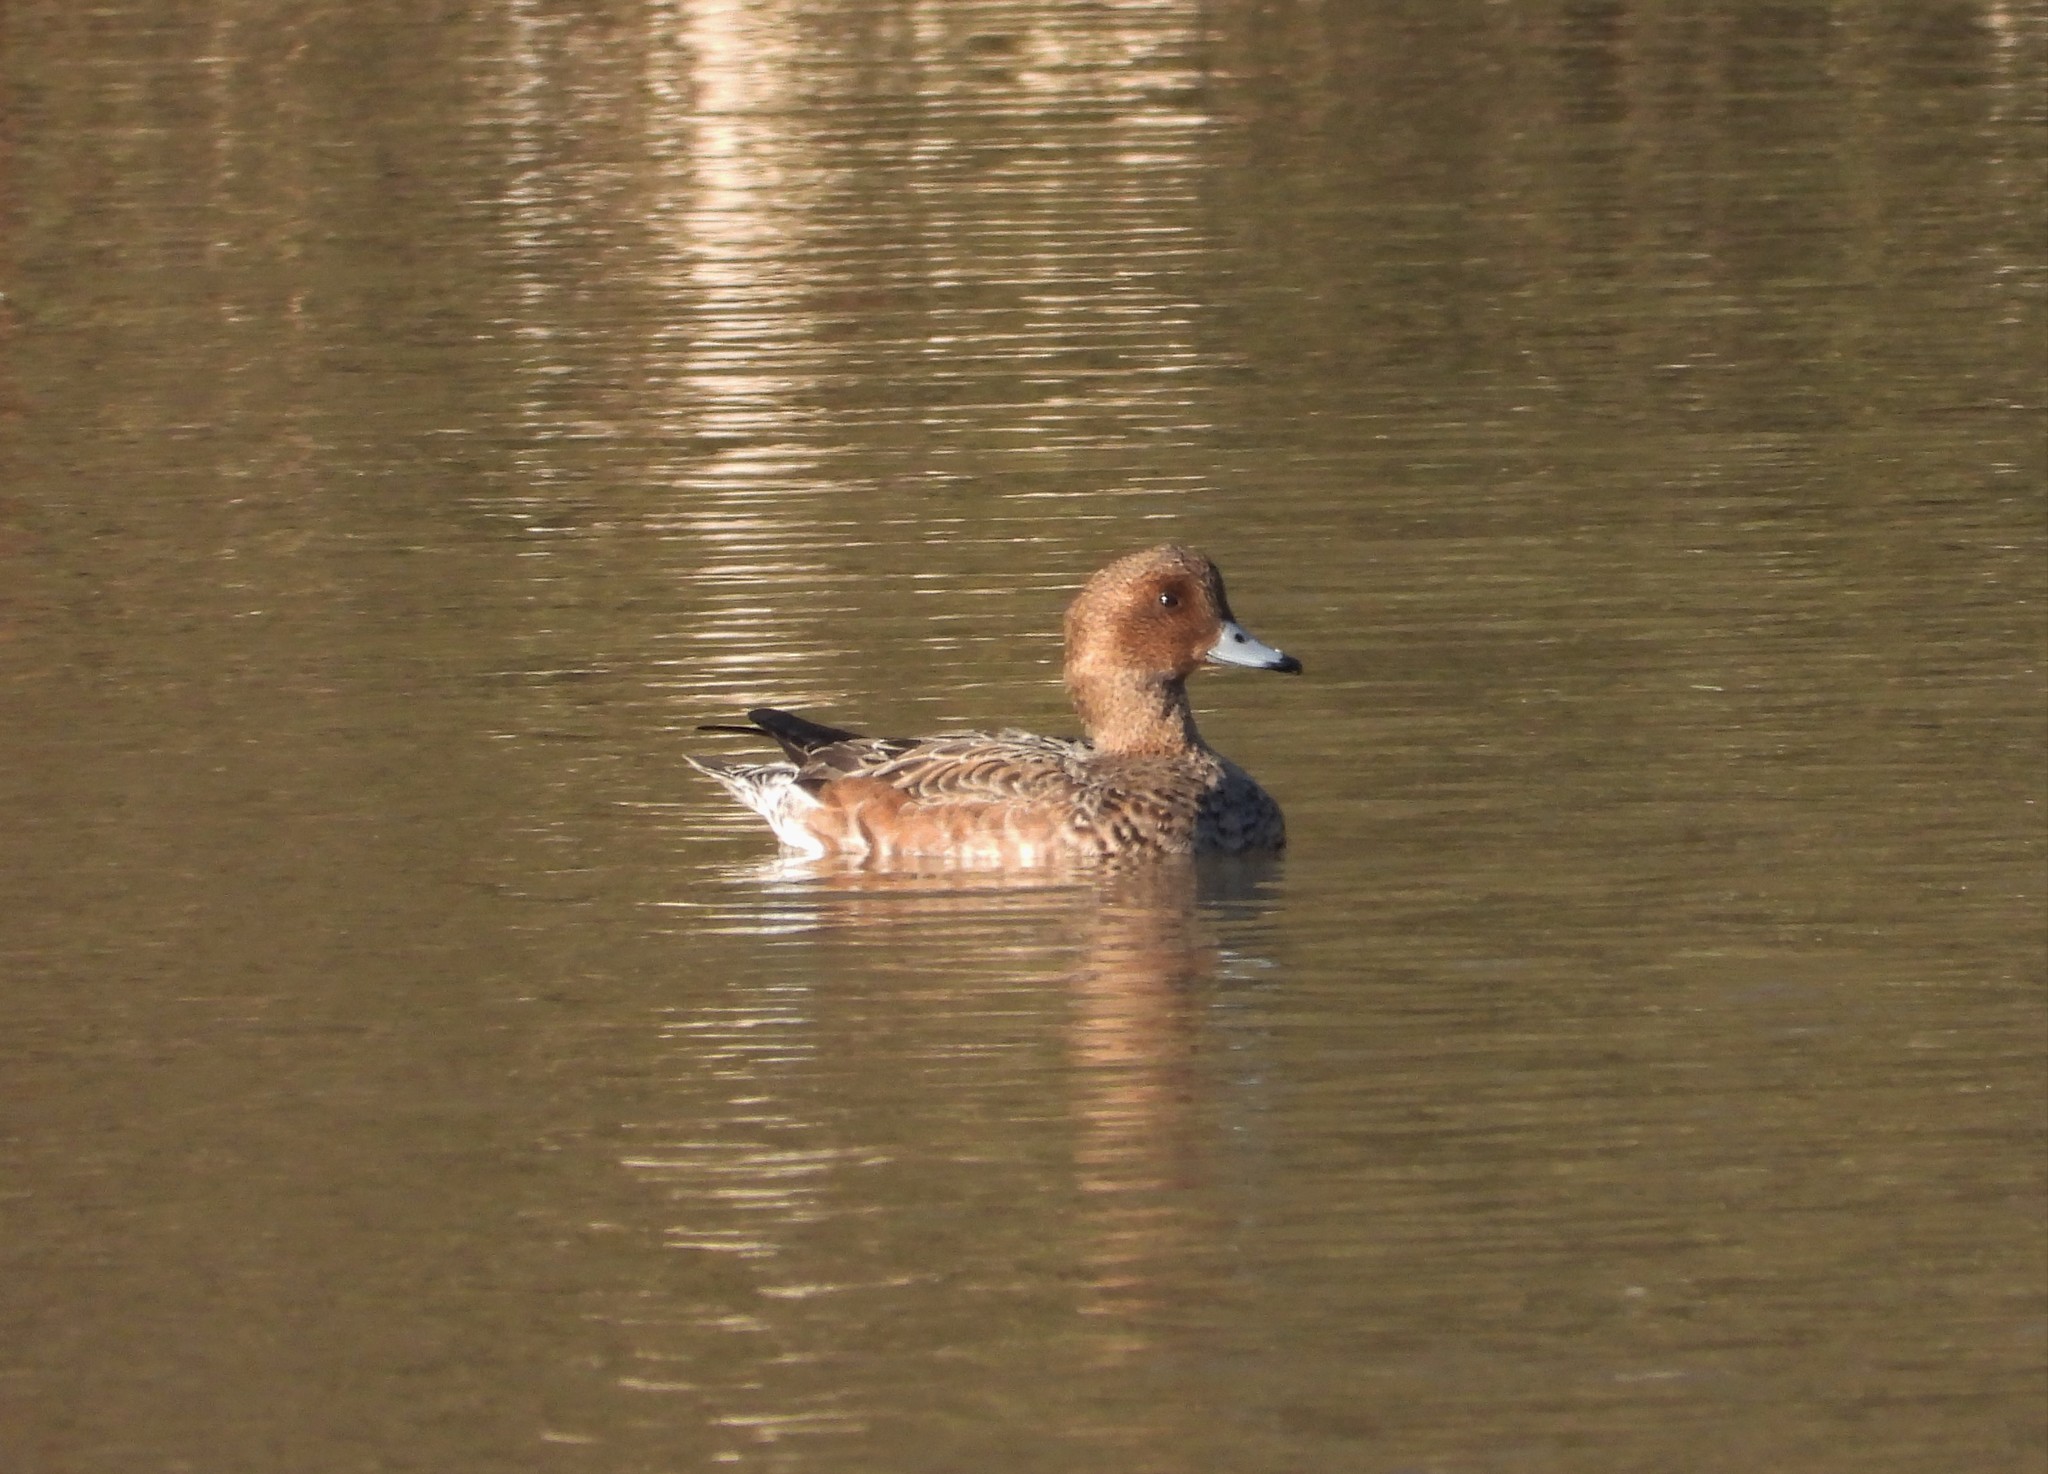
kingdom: Animalia
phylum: Chordata
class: Aves
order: Anseriformes
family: Anatidae
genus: Mareca
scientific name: Mareca penelope
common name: Eurasian wigeon
